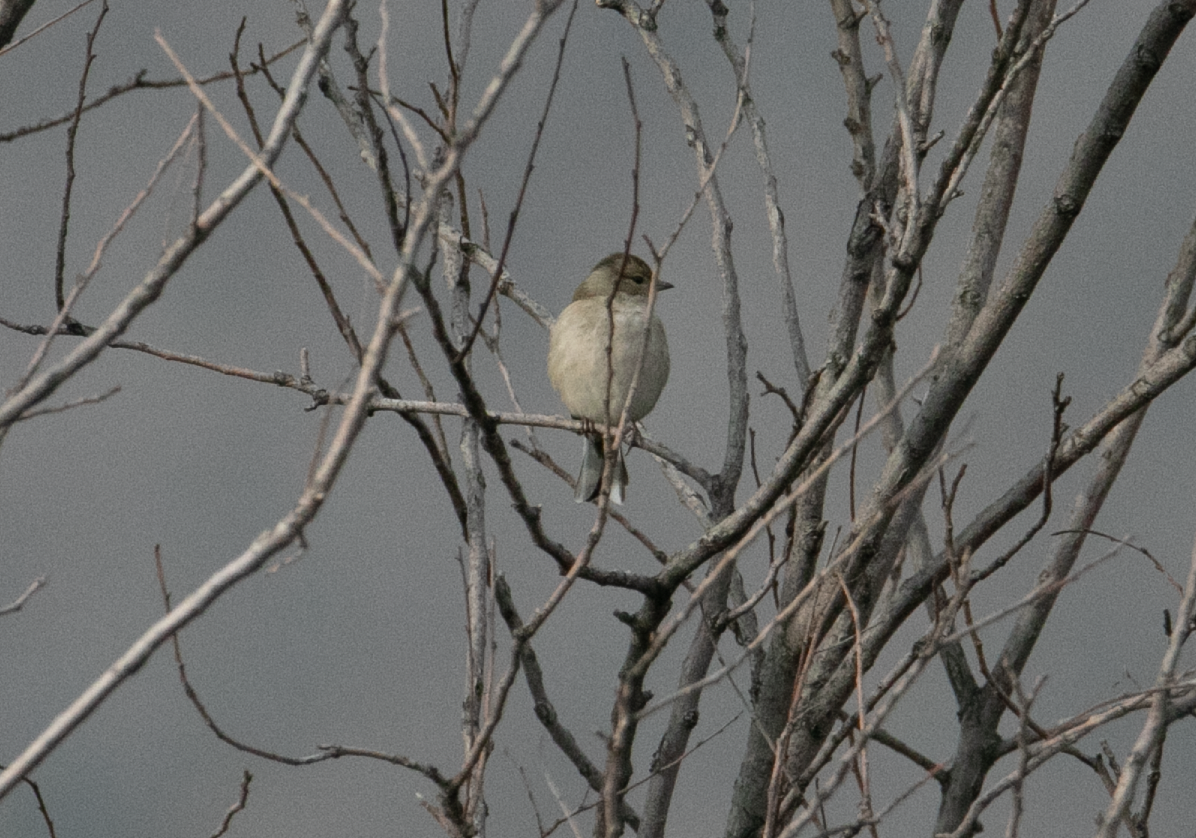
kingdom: Animalia
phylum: Chordata
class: Aves
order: Passeriformes
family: Fringillidae
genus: Fringilla
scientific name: Fringilla coelebs
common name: Common chaffinch
